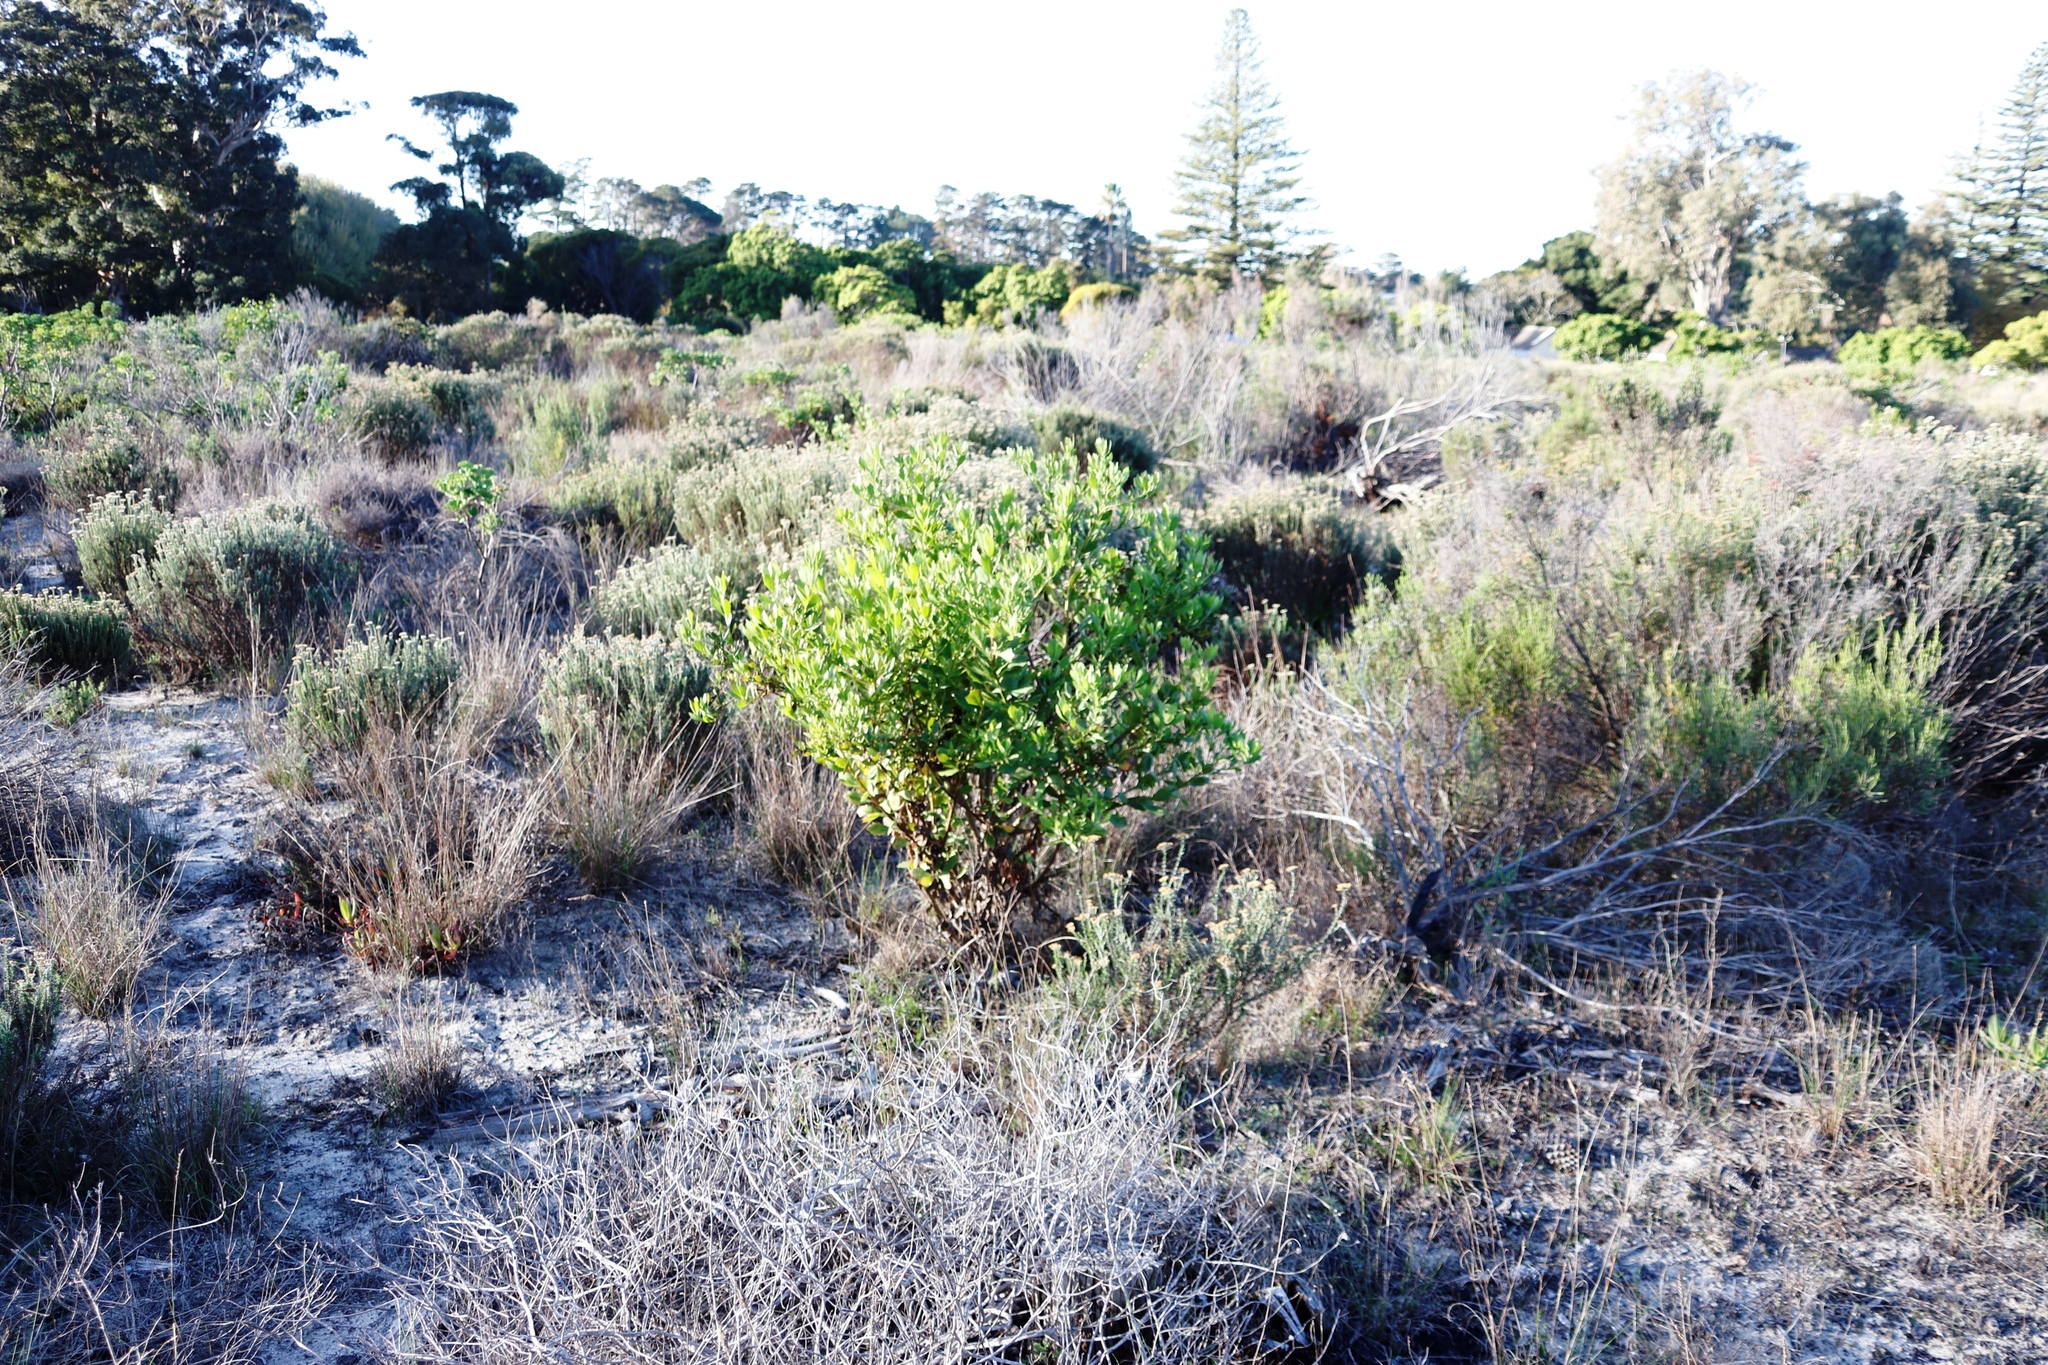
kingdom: Plantae
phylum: Tracheophyta
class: Magnoliopsida
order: Asterales
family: Asteraceae
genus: Osteospermum
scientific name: Osteospermum moniliferum
